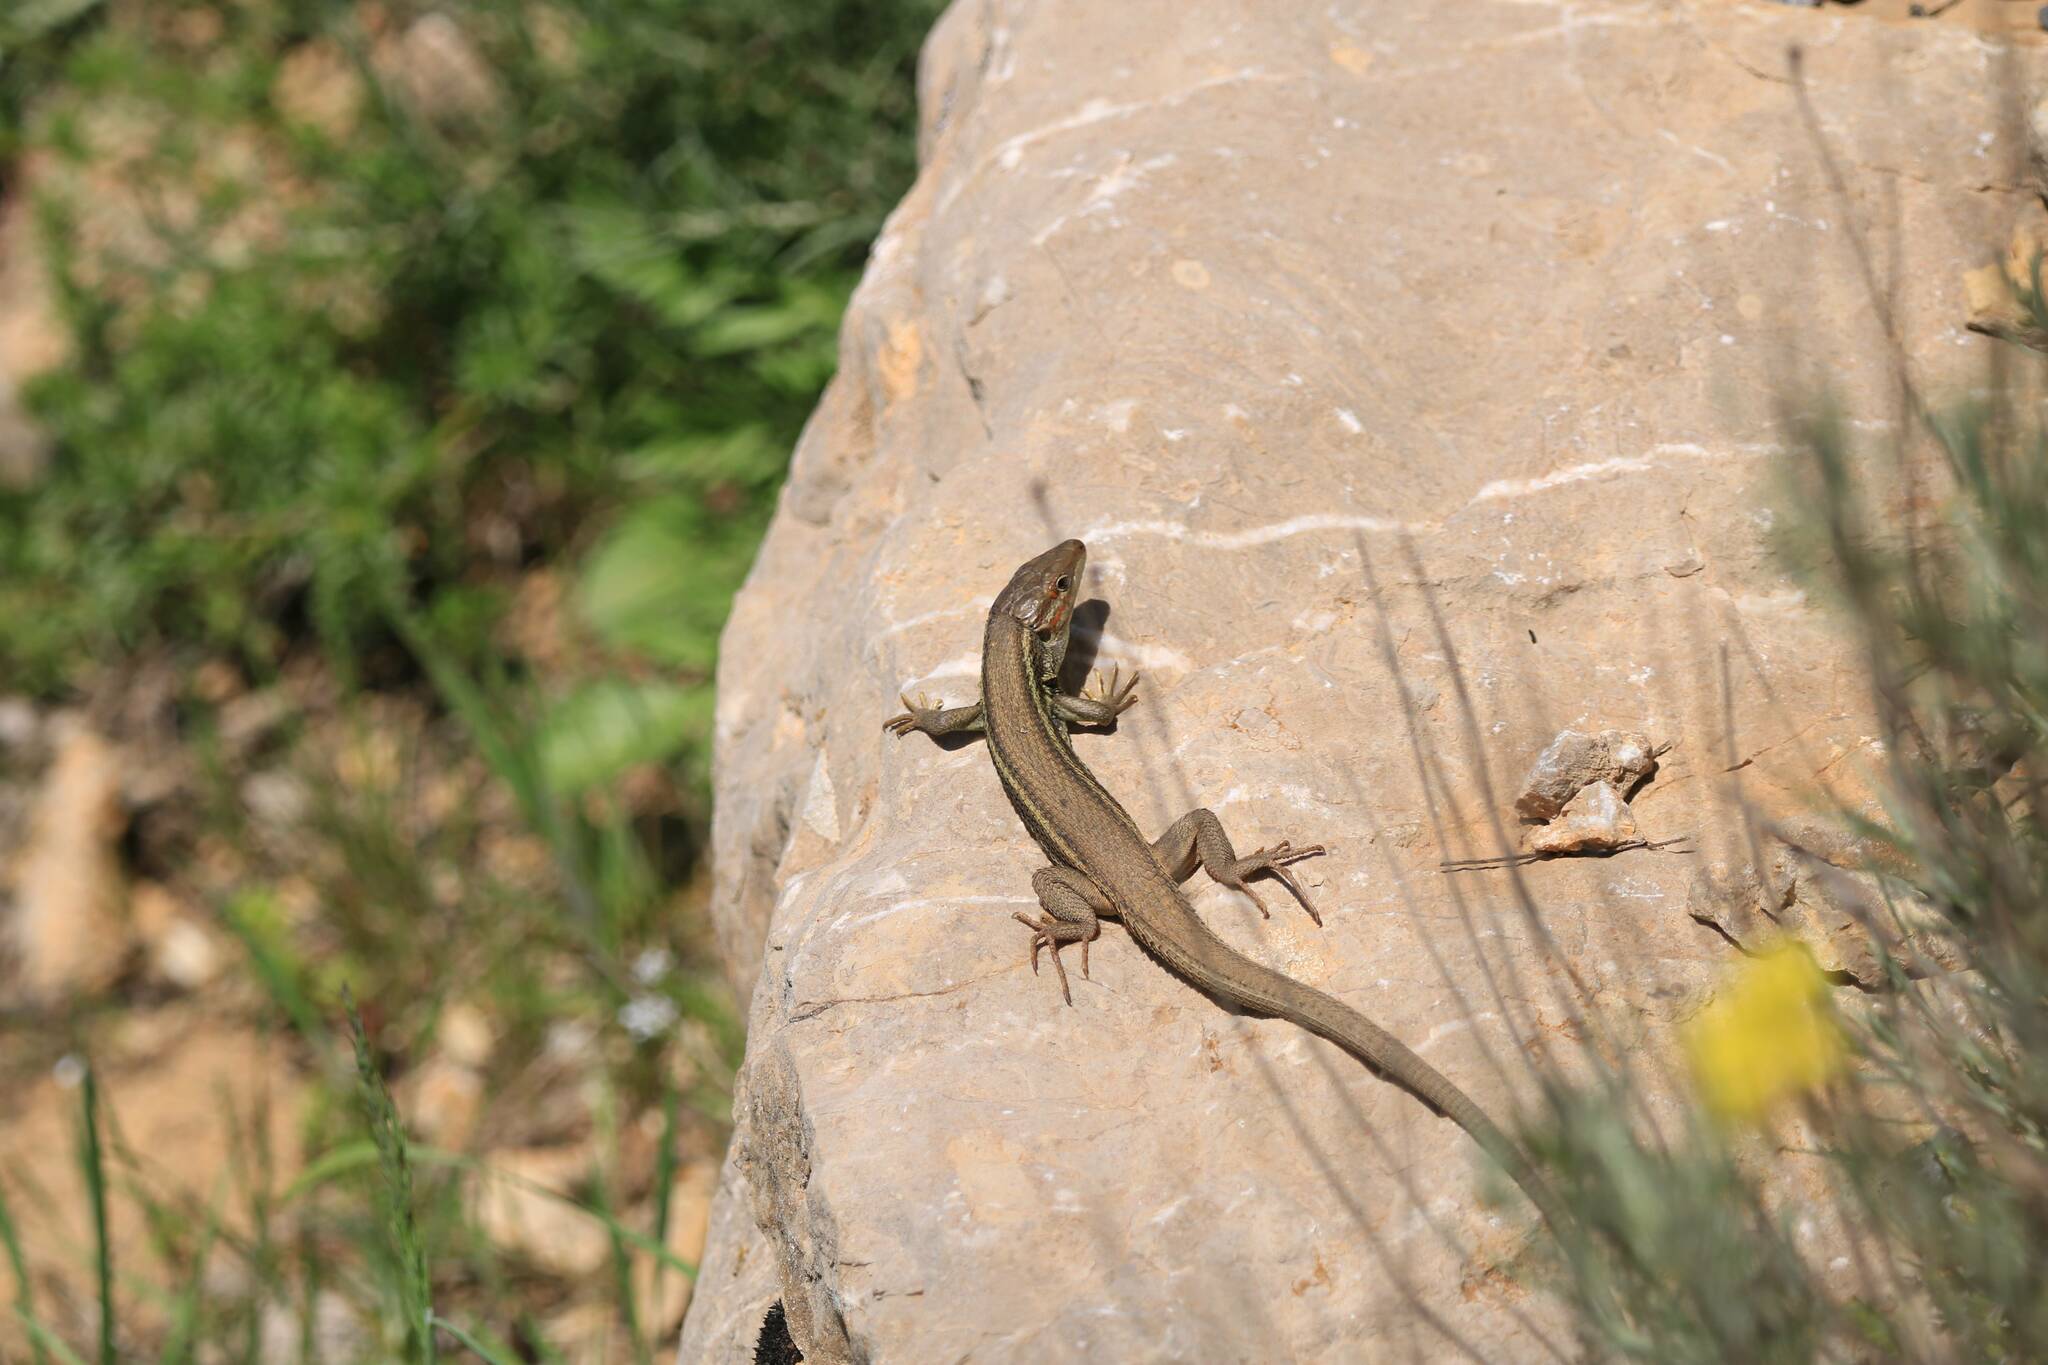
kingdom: Animalia
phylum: Chordata
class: Squamata
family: Lacertidae
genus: Psammodromus
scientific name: Psammodromus algirus
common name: Algerian psammodromus
